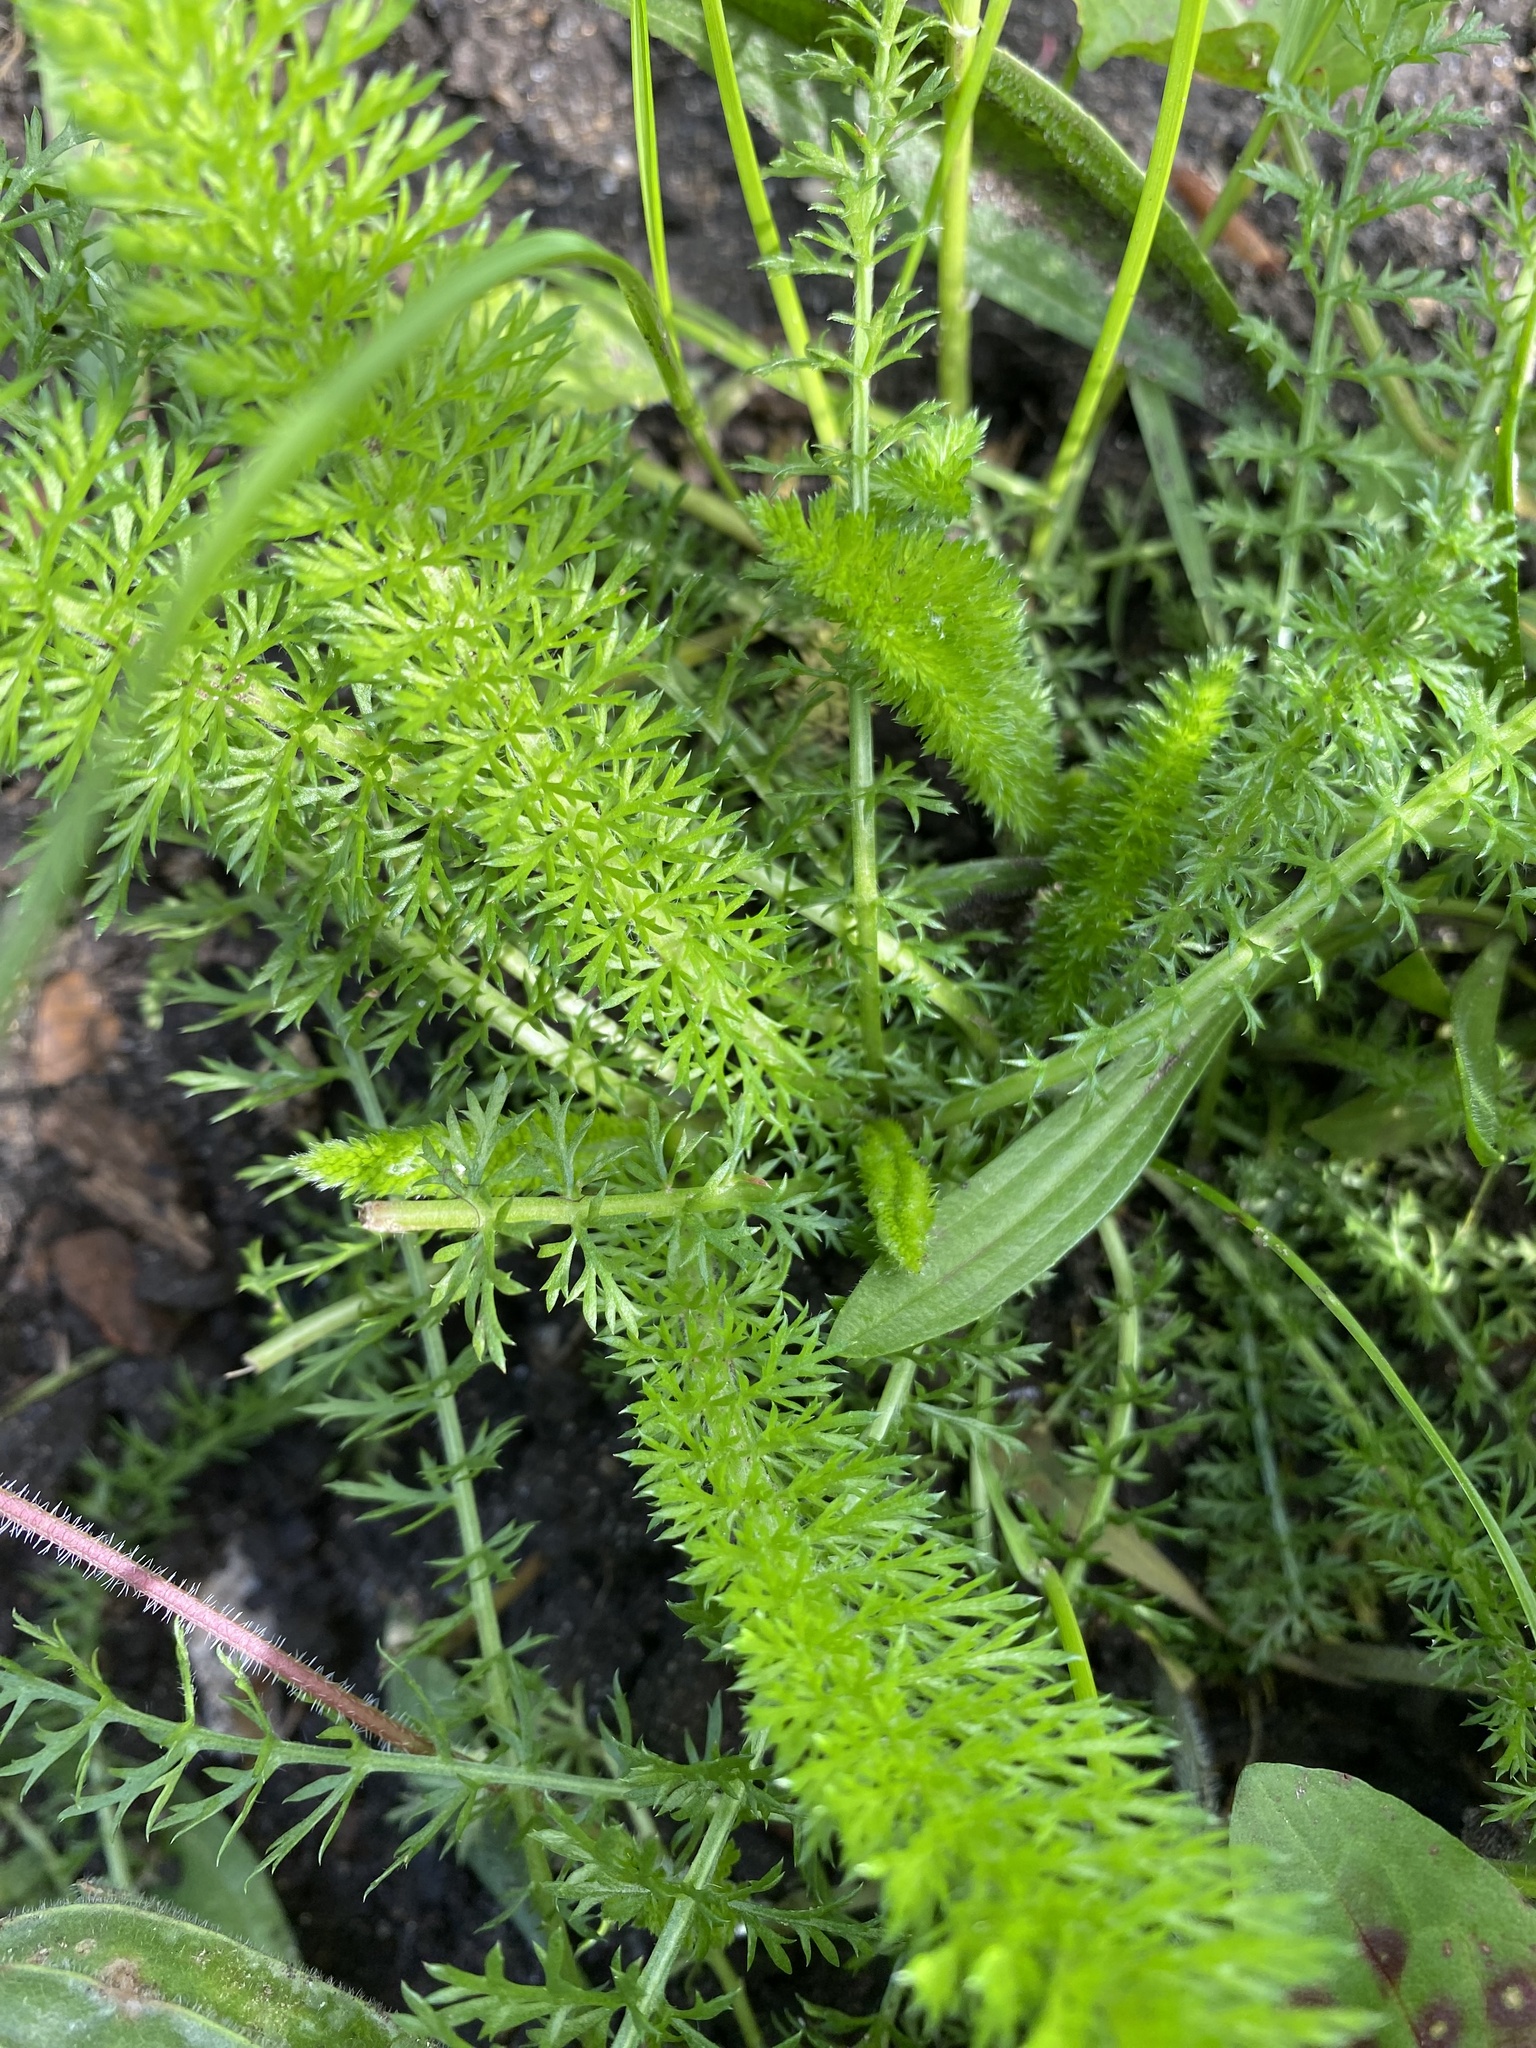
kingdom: Plantae
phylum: Tracheophyta
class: Magnoliopsida
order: Asterales
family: Asteraceae
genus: Achillea
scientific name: Achillea millefolium
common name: Yarrow
